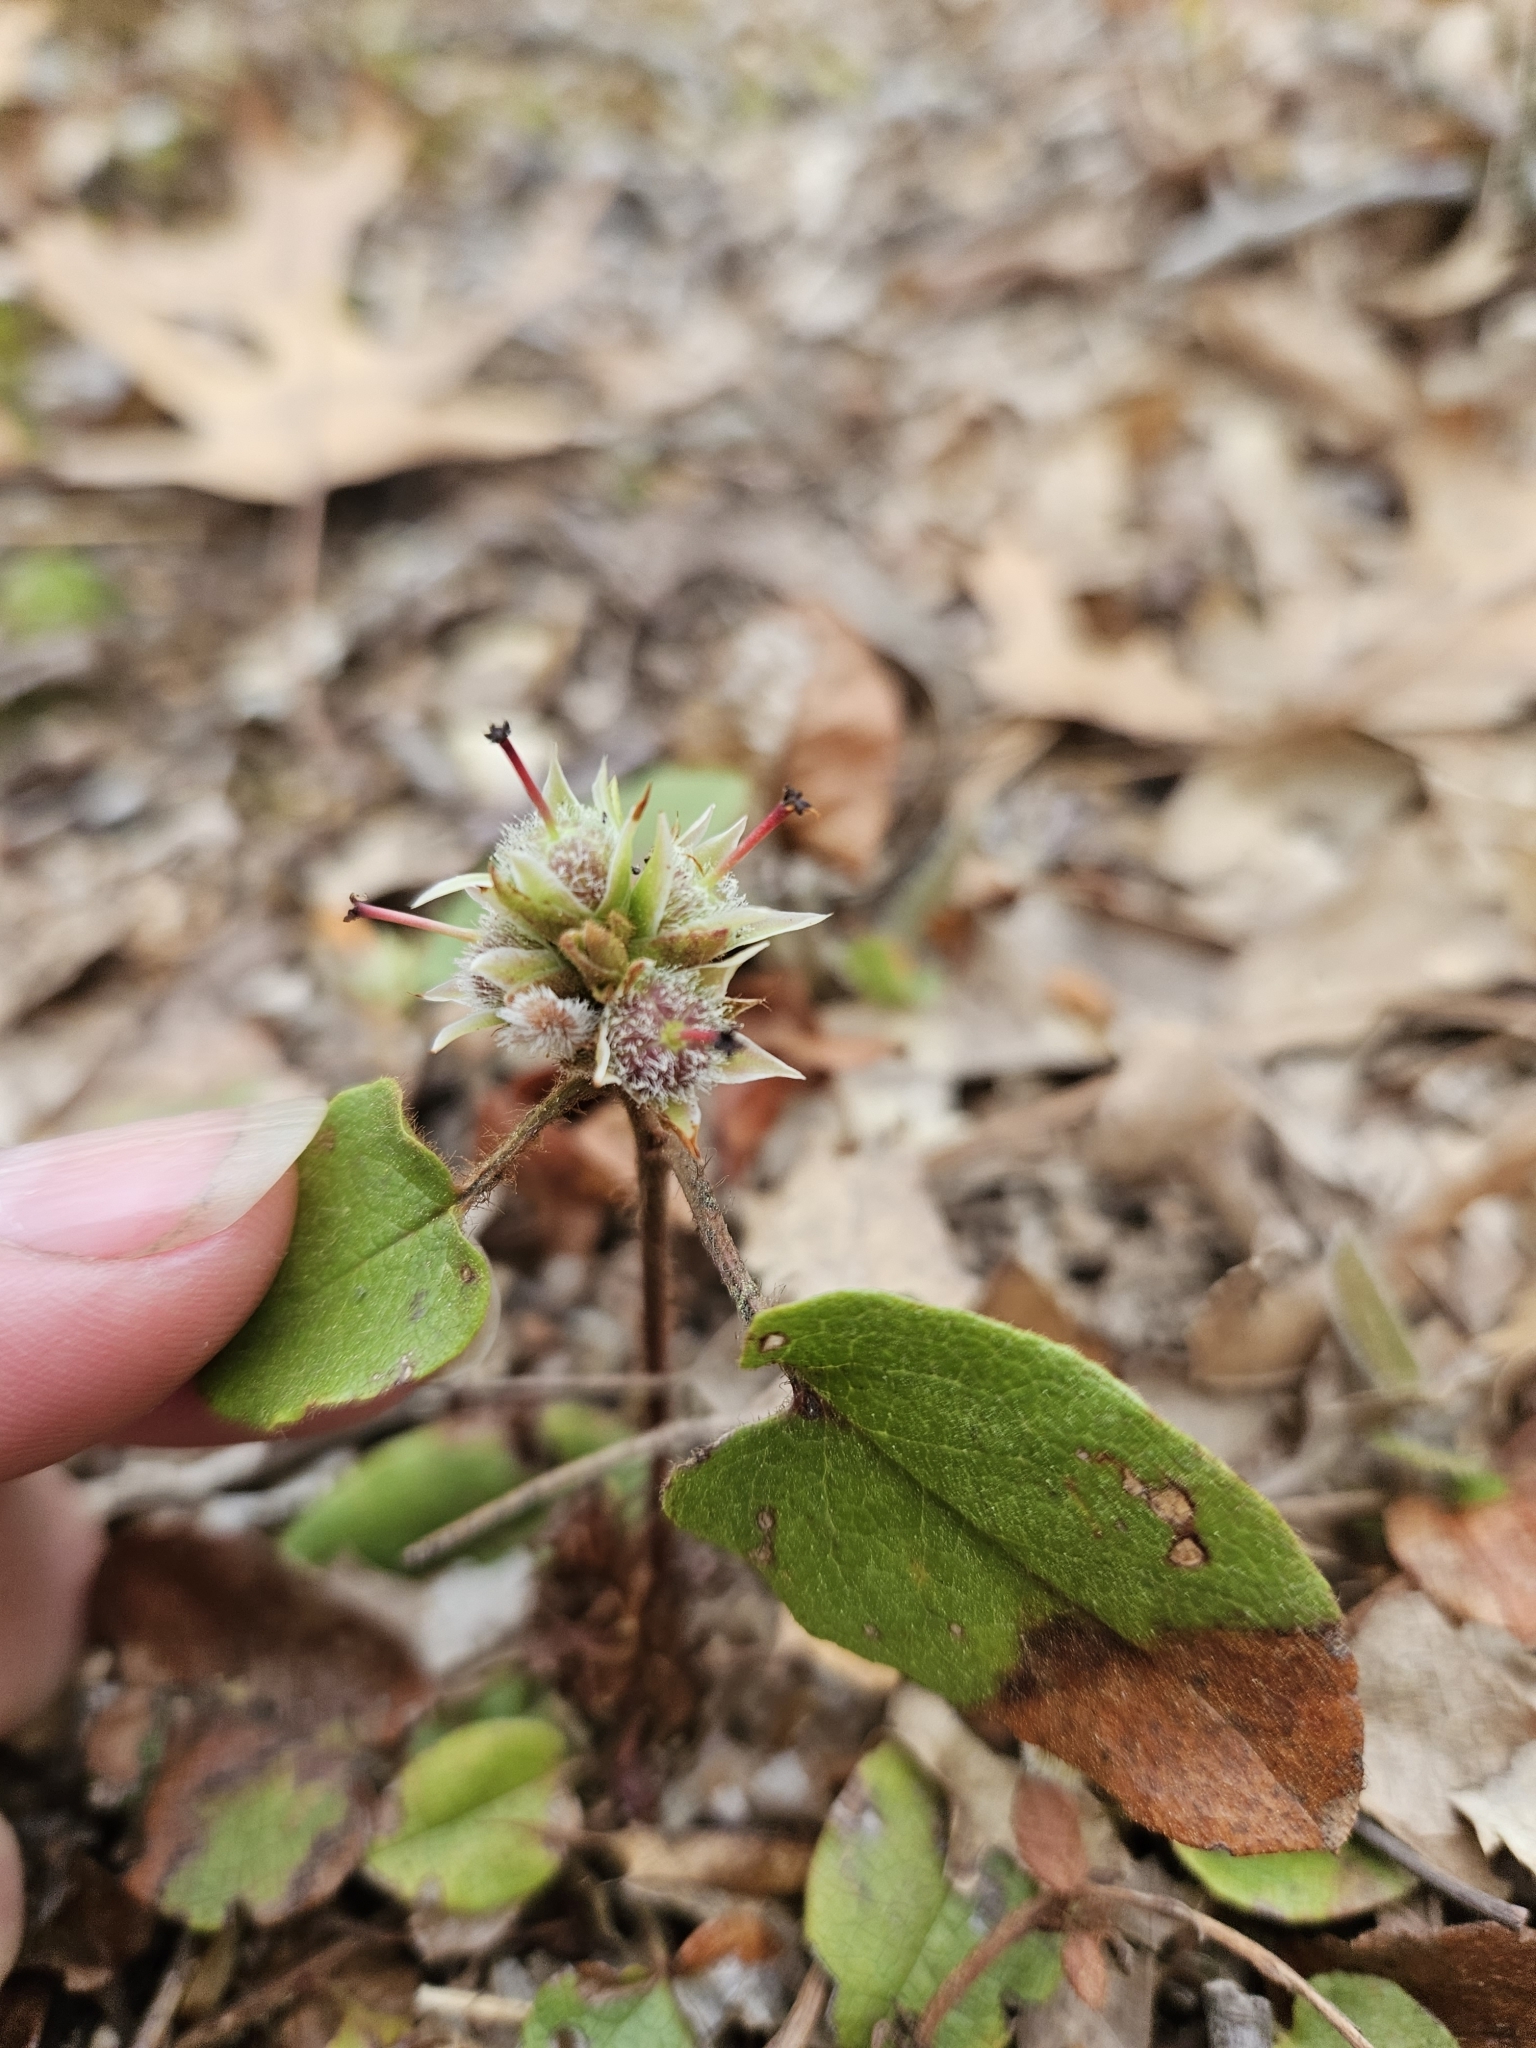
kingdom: Plantae
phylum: Tracheophyta
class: Magnoliopsida
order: Ericales
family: Ericaceae
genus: Epigaea
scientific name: Epigaea repens
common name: Gravelroot
